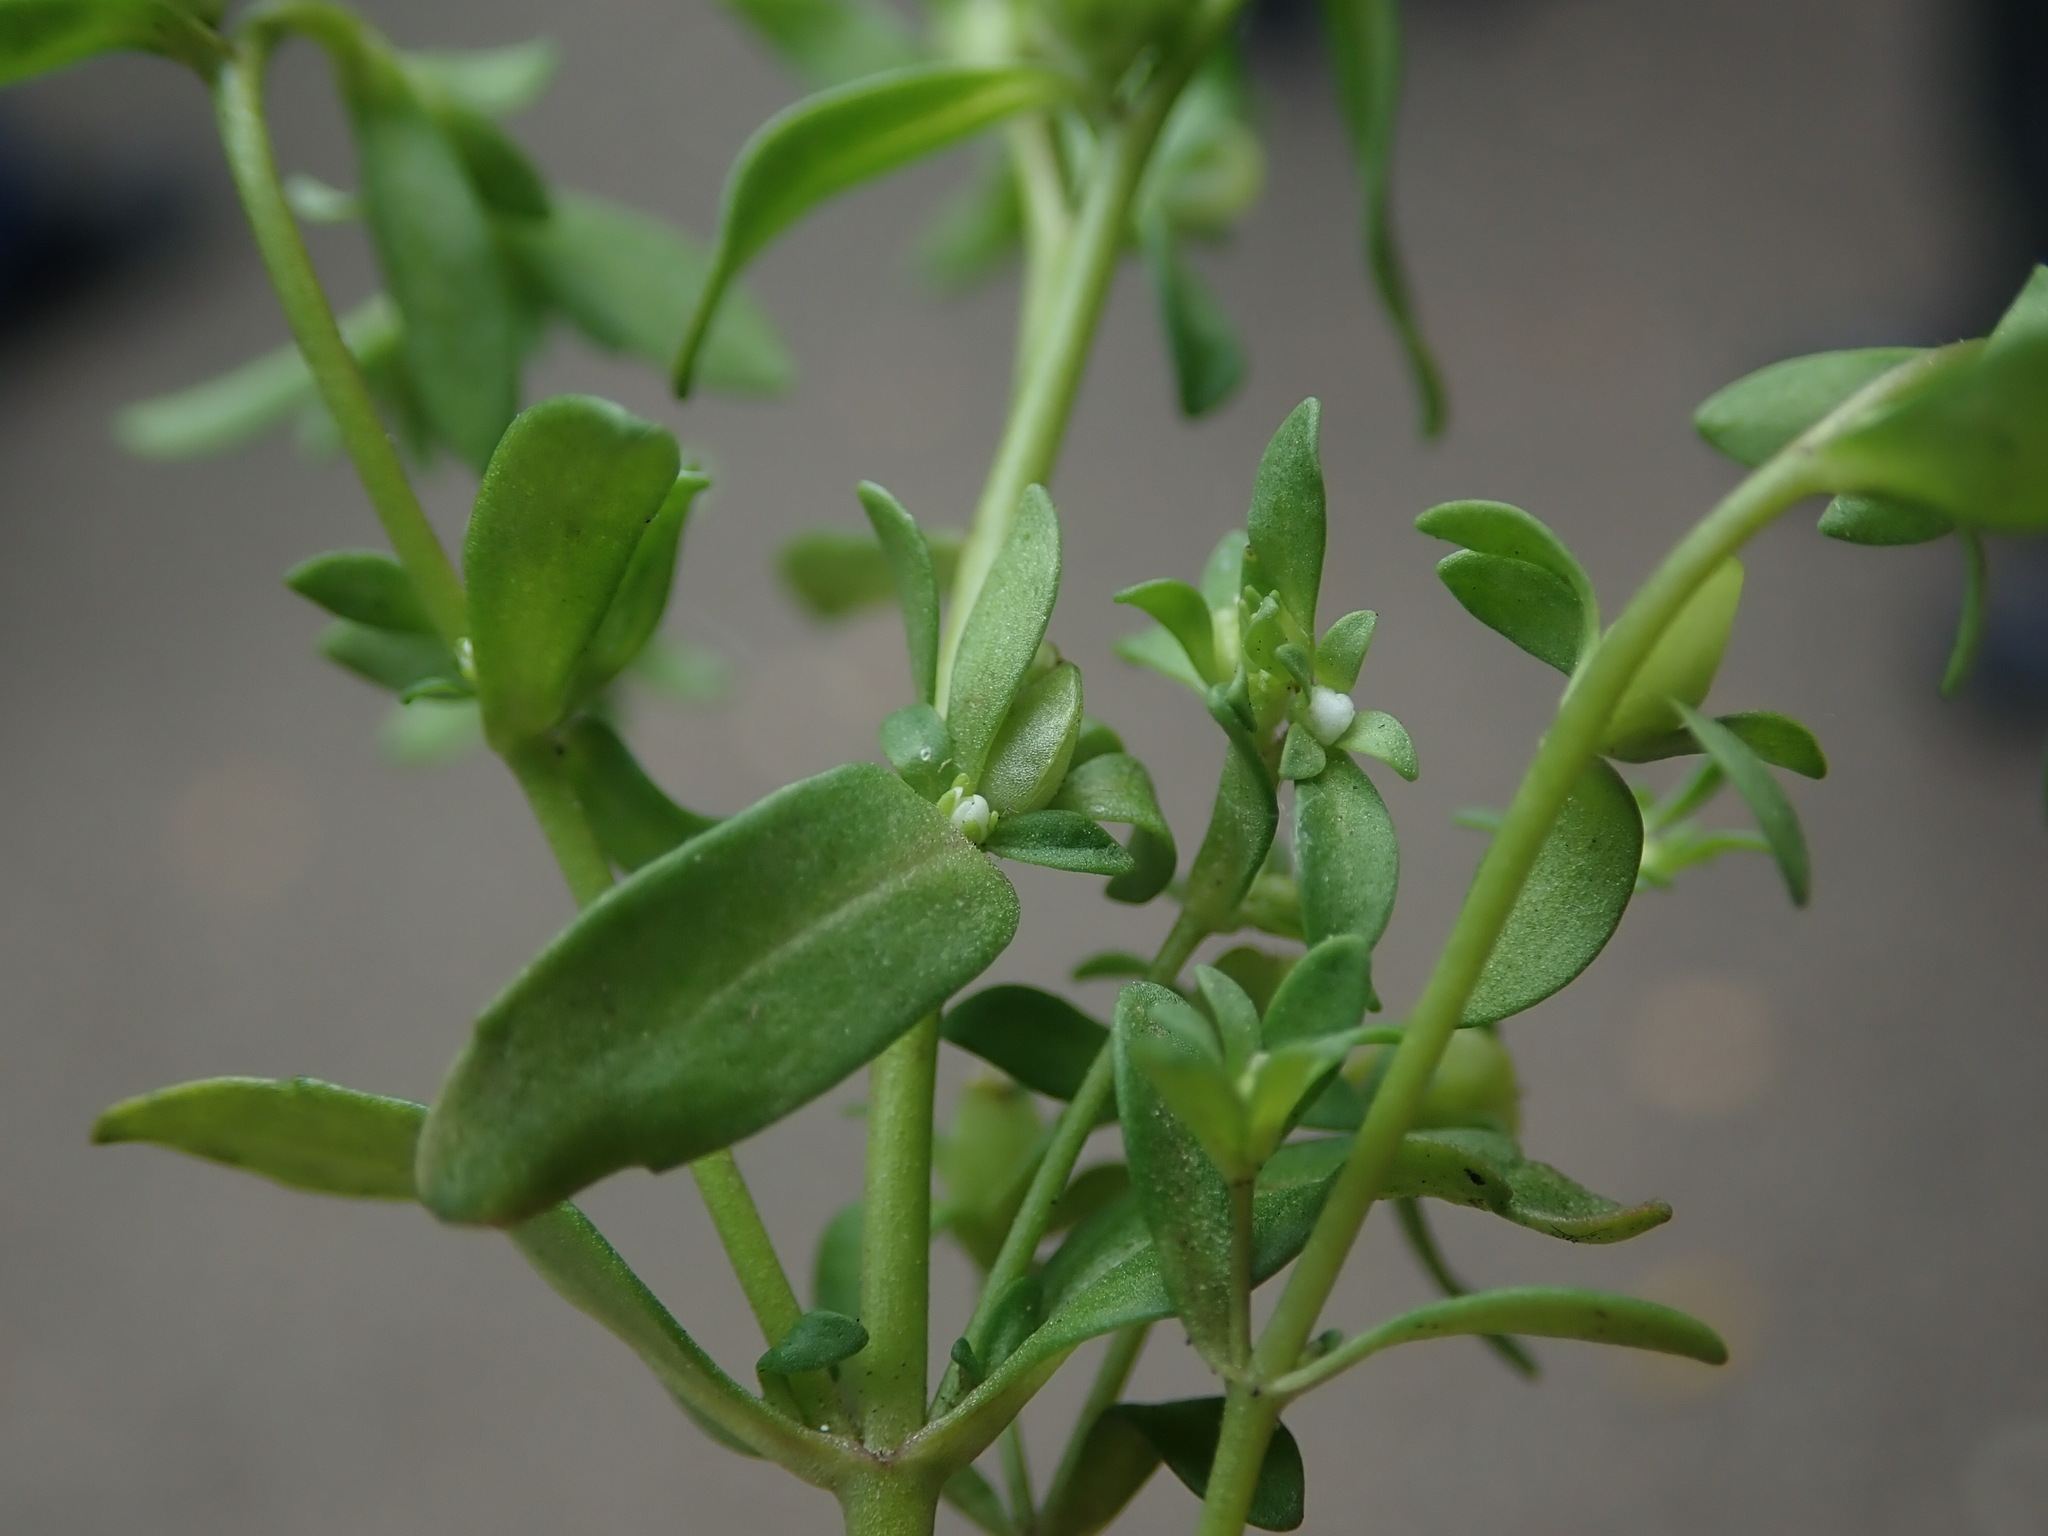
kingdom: Plantae
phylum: Tracheophyta
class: Magnoliopsida
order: Lamiales
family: Plantaginaceae
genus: Veronica
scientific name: Veronica peregrina
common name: Neckweed
